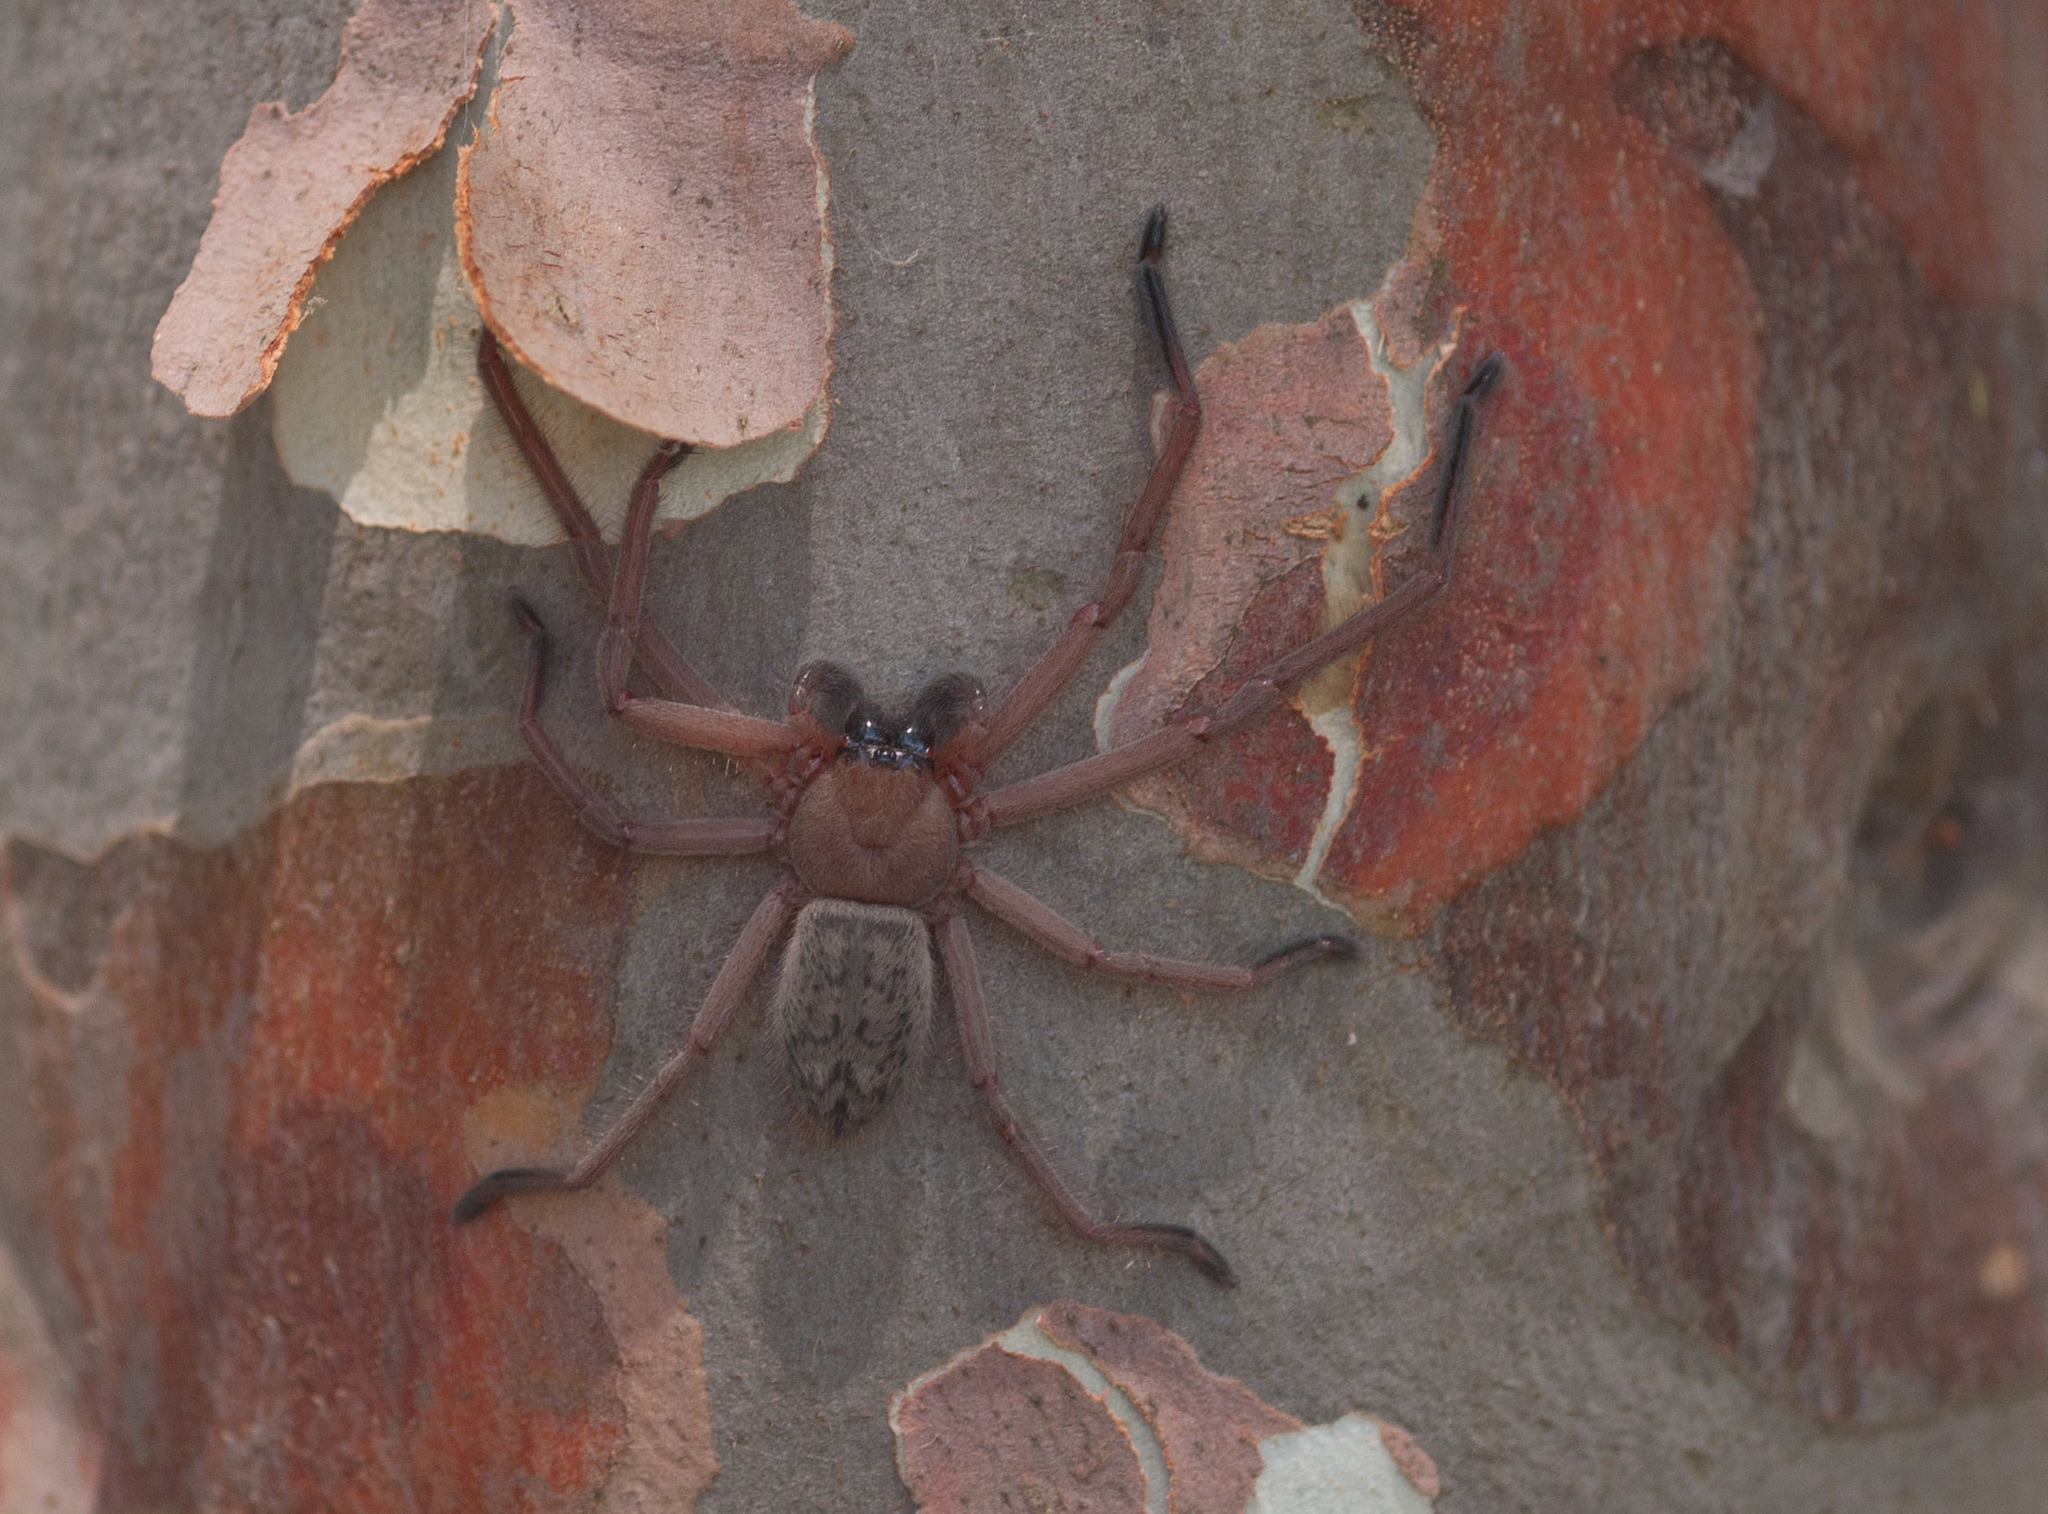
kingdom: Animalia
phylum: Arthropoda
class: Arachnida
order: Araneae
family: Sparassidae
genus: Delena
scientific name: Delena cancerides
